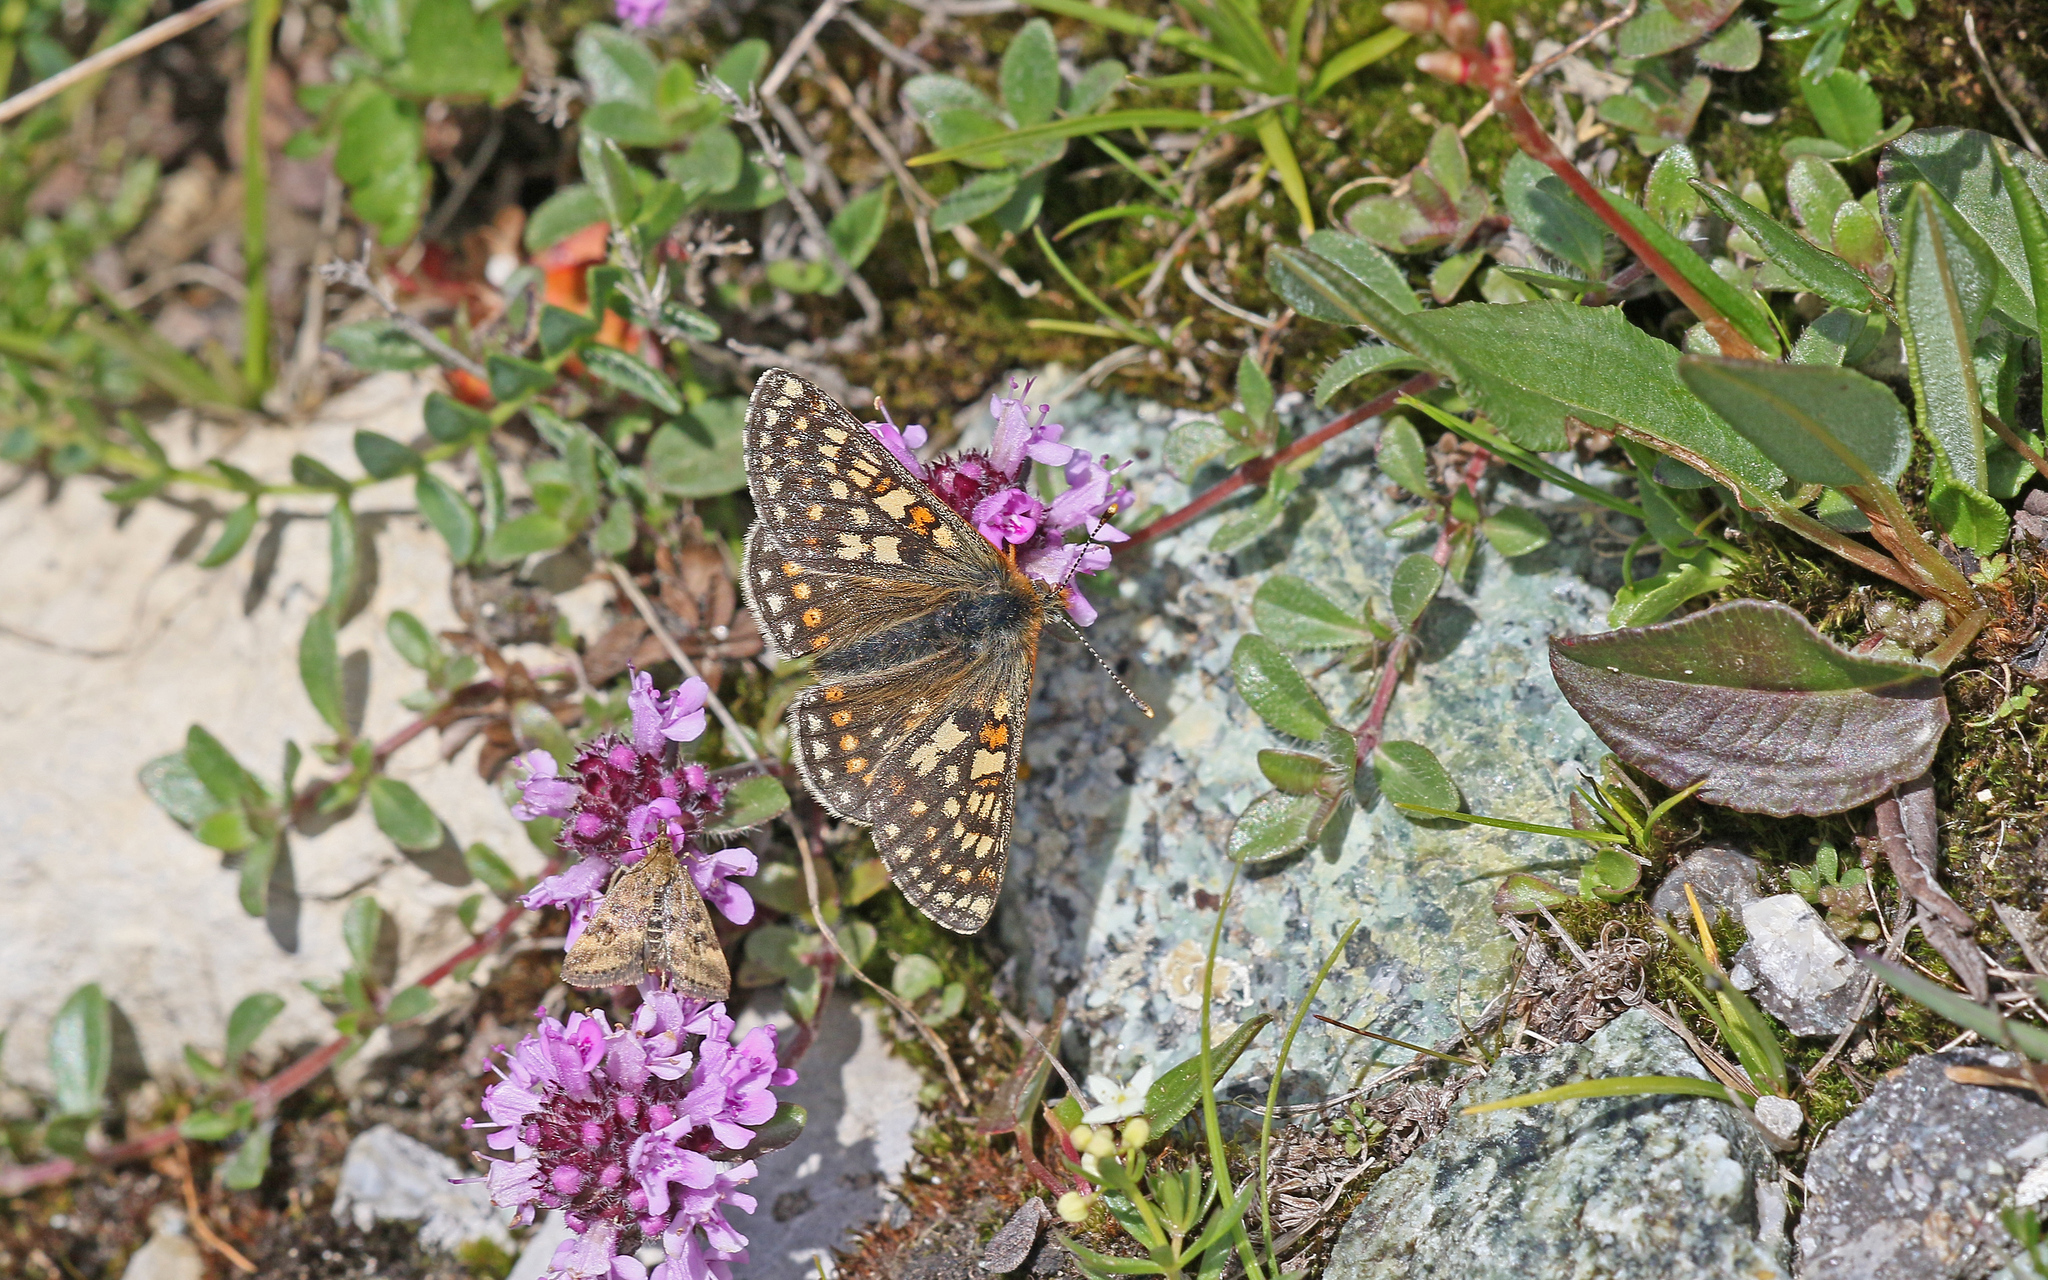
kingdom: Animalia
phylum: Arthropoda
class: Insecta
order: Lepidoptera
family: Nymphalidae
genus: Euphydryas
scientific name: Euphydryas aurinia
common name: Marsh fritillary
